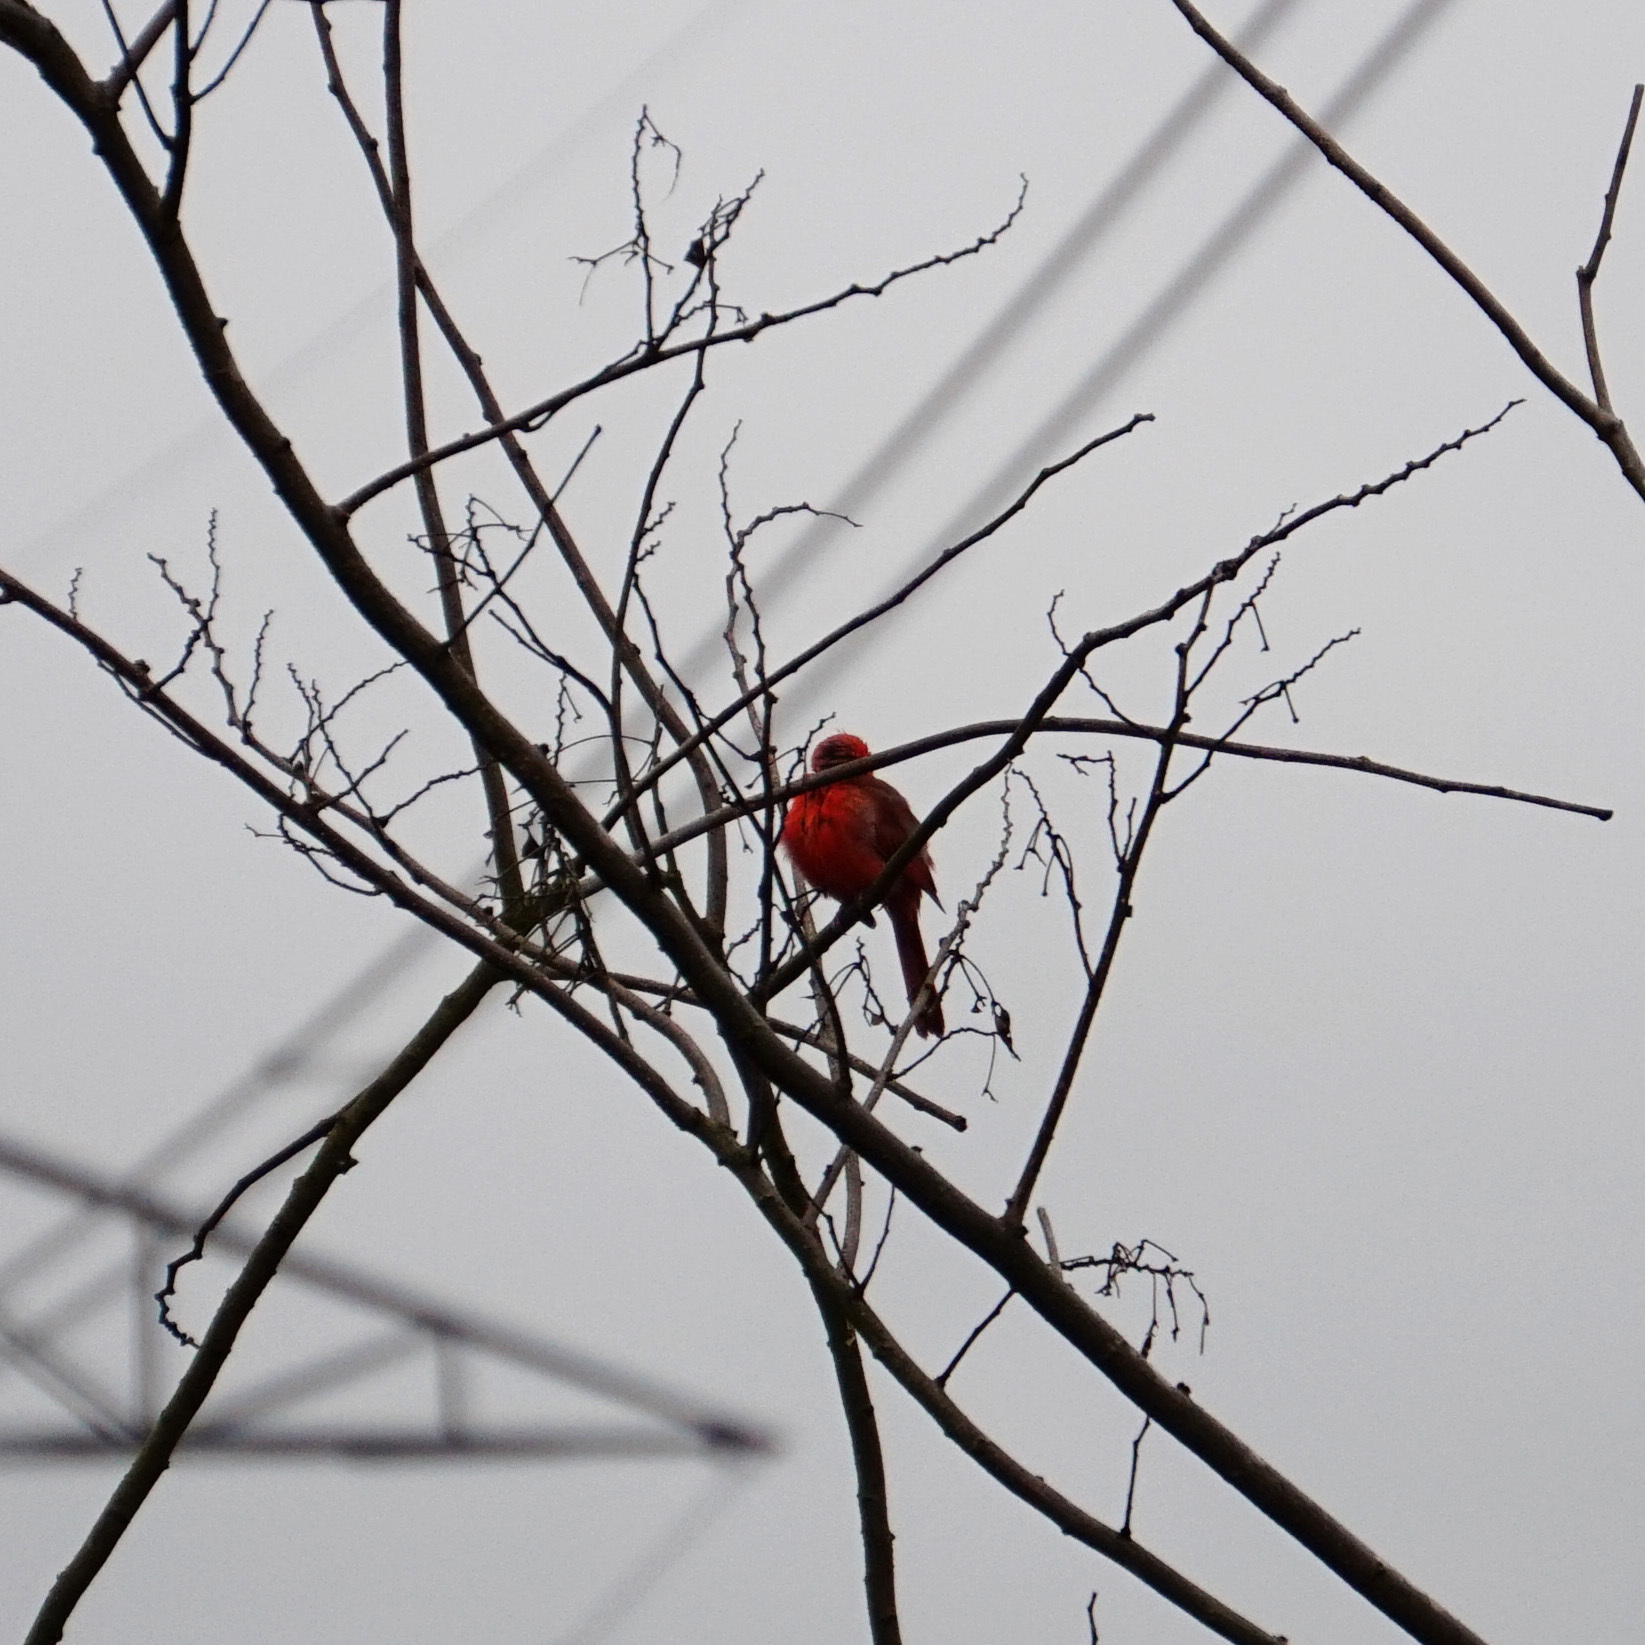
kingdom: Animalia
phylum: Chordata
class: Aves
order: Passeriformes
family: Cardinalidae
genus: Cardinalis
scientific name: Cardinalis cardinalis
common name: Northern cardinal
